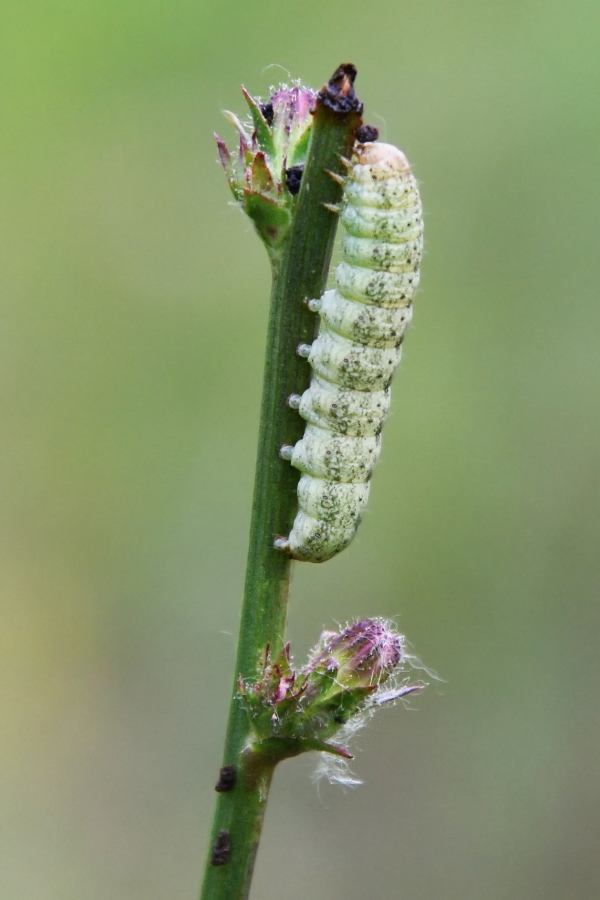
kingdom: Animalia
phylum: Arthropoda
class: Insecta
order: Lepidoptera
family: Noctuidae
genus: Hecatera
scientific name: Hecatera bicolorata
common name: Broad-barred white
